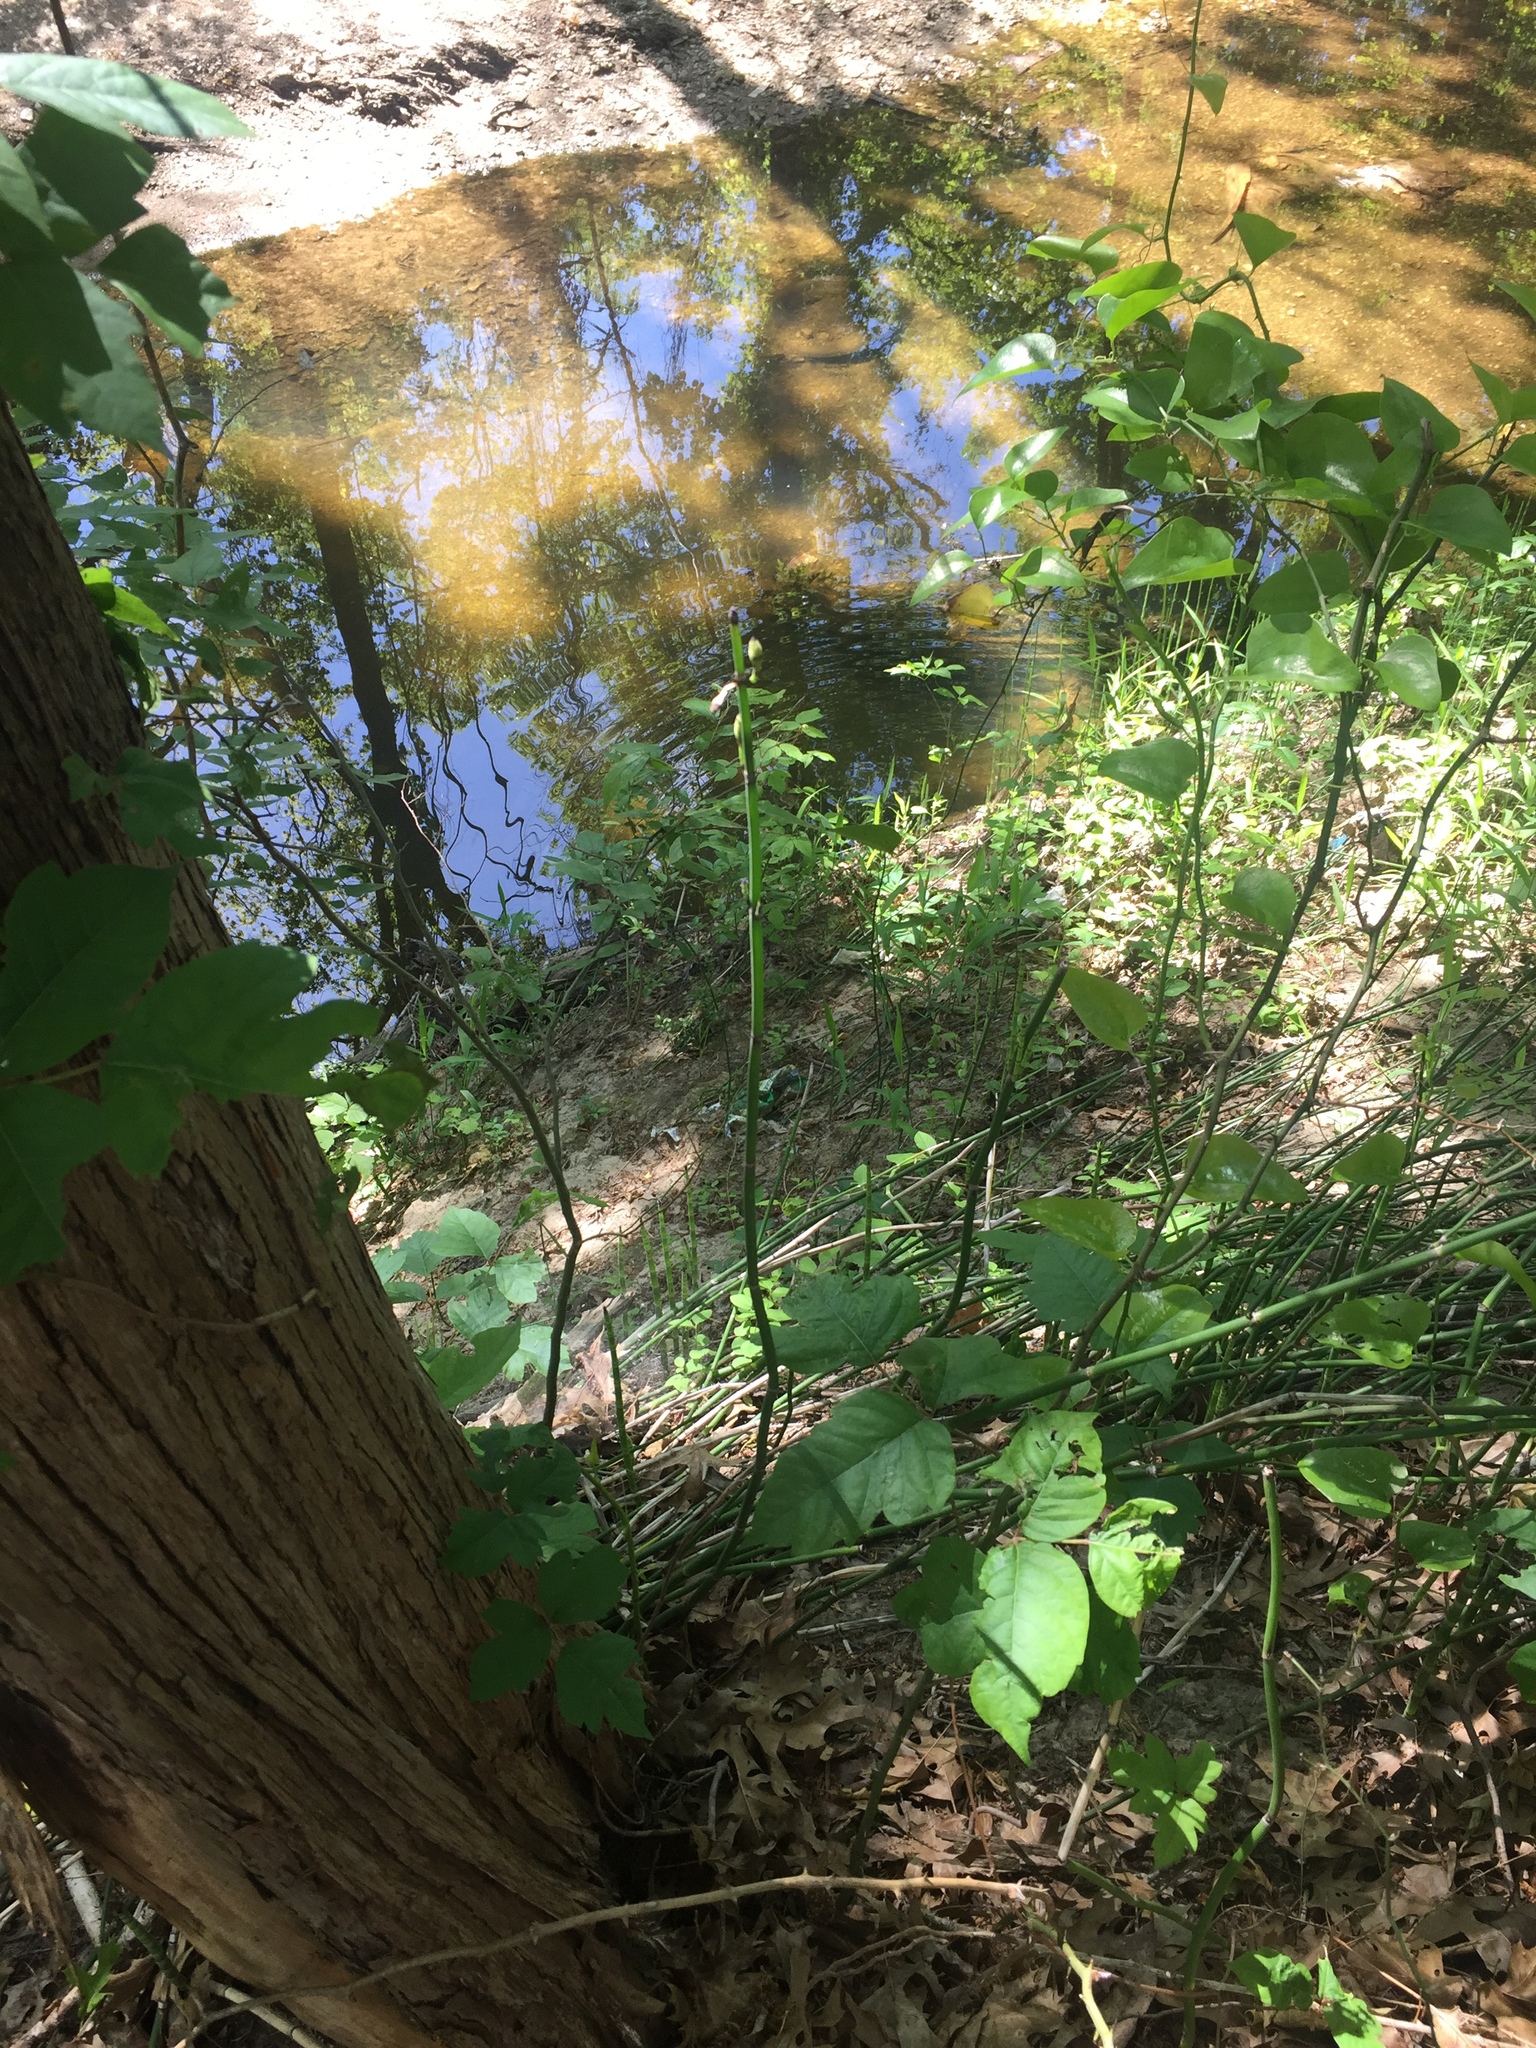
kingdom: Plantae
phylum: Tracheophyta
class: Polypodiopsida
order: Equisetales
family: Equisetaceae
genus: Equisetum
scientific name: Equisetum praealtum
